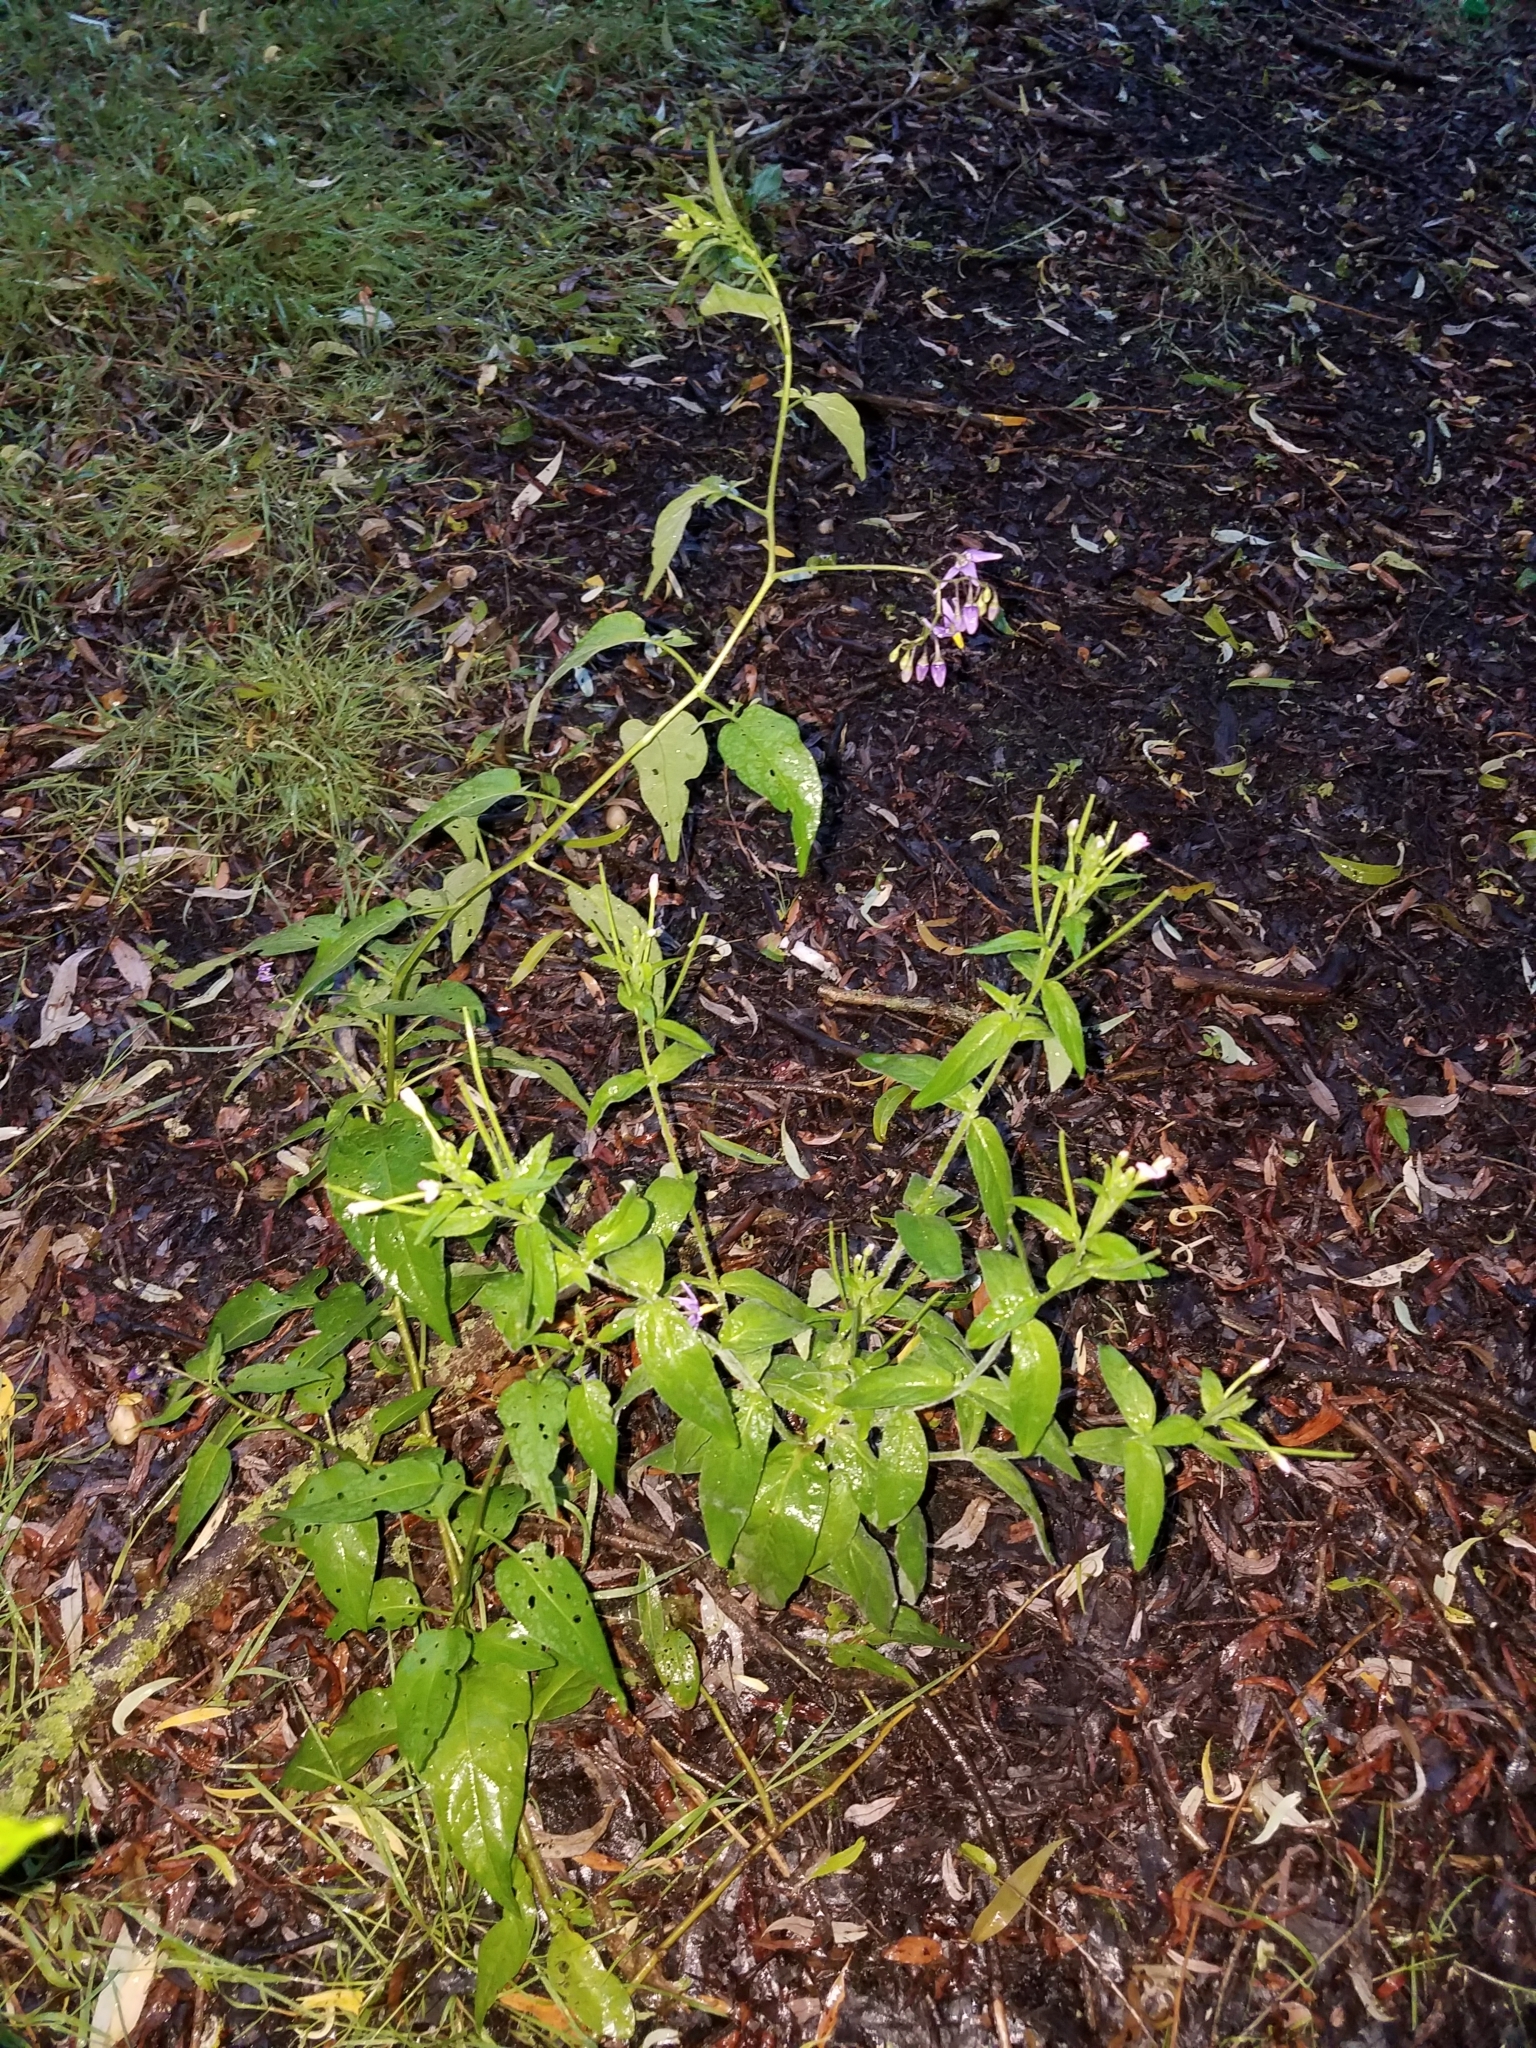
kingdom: Plantae
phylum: Tracheophyta
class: Magnoliopsida
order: Solanales
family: Solanaceae
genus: Solanum
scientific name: Solanum dulcamara
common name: Climbing nightshade
